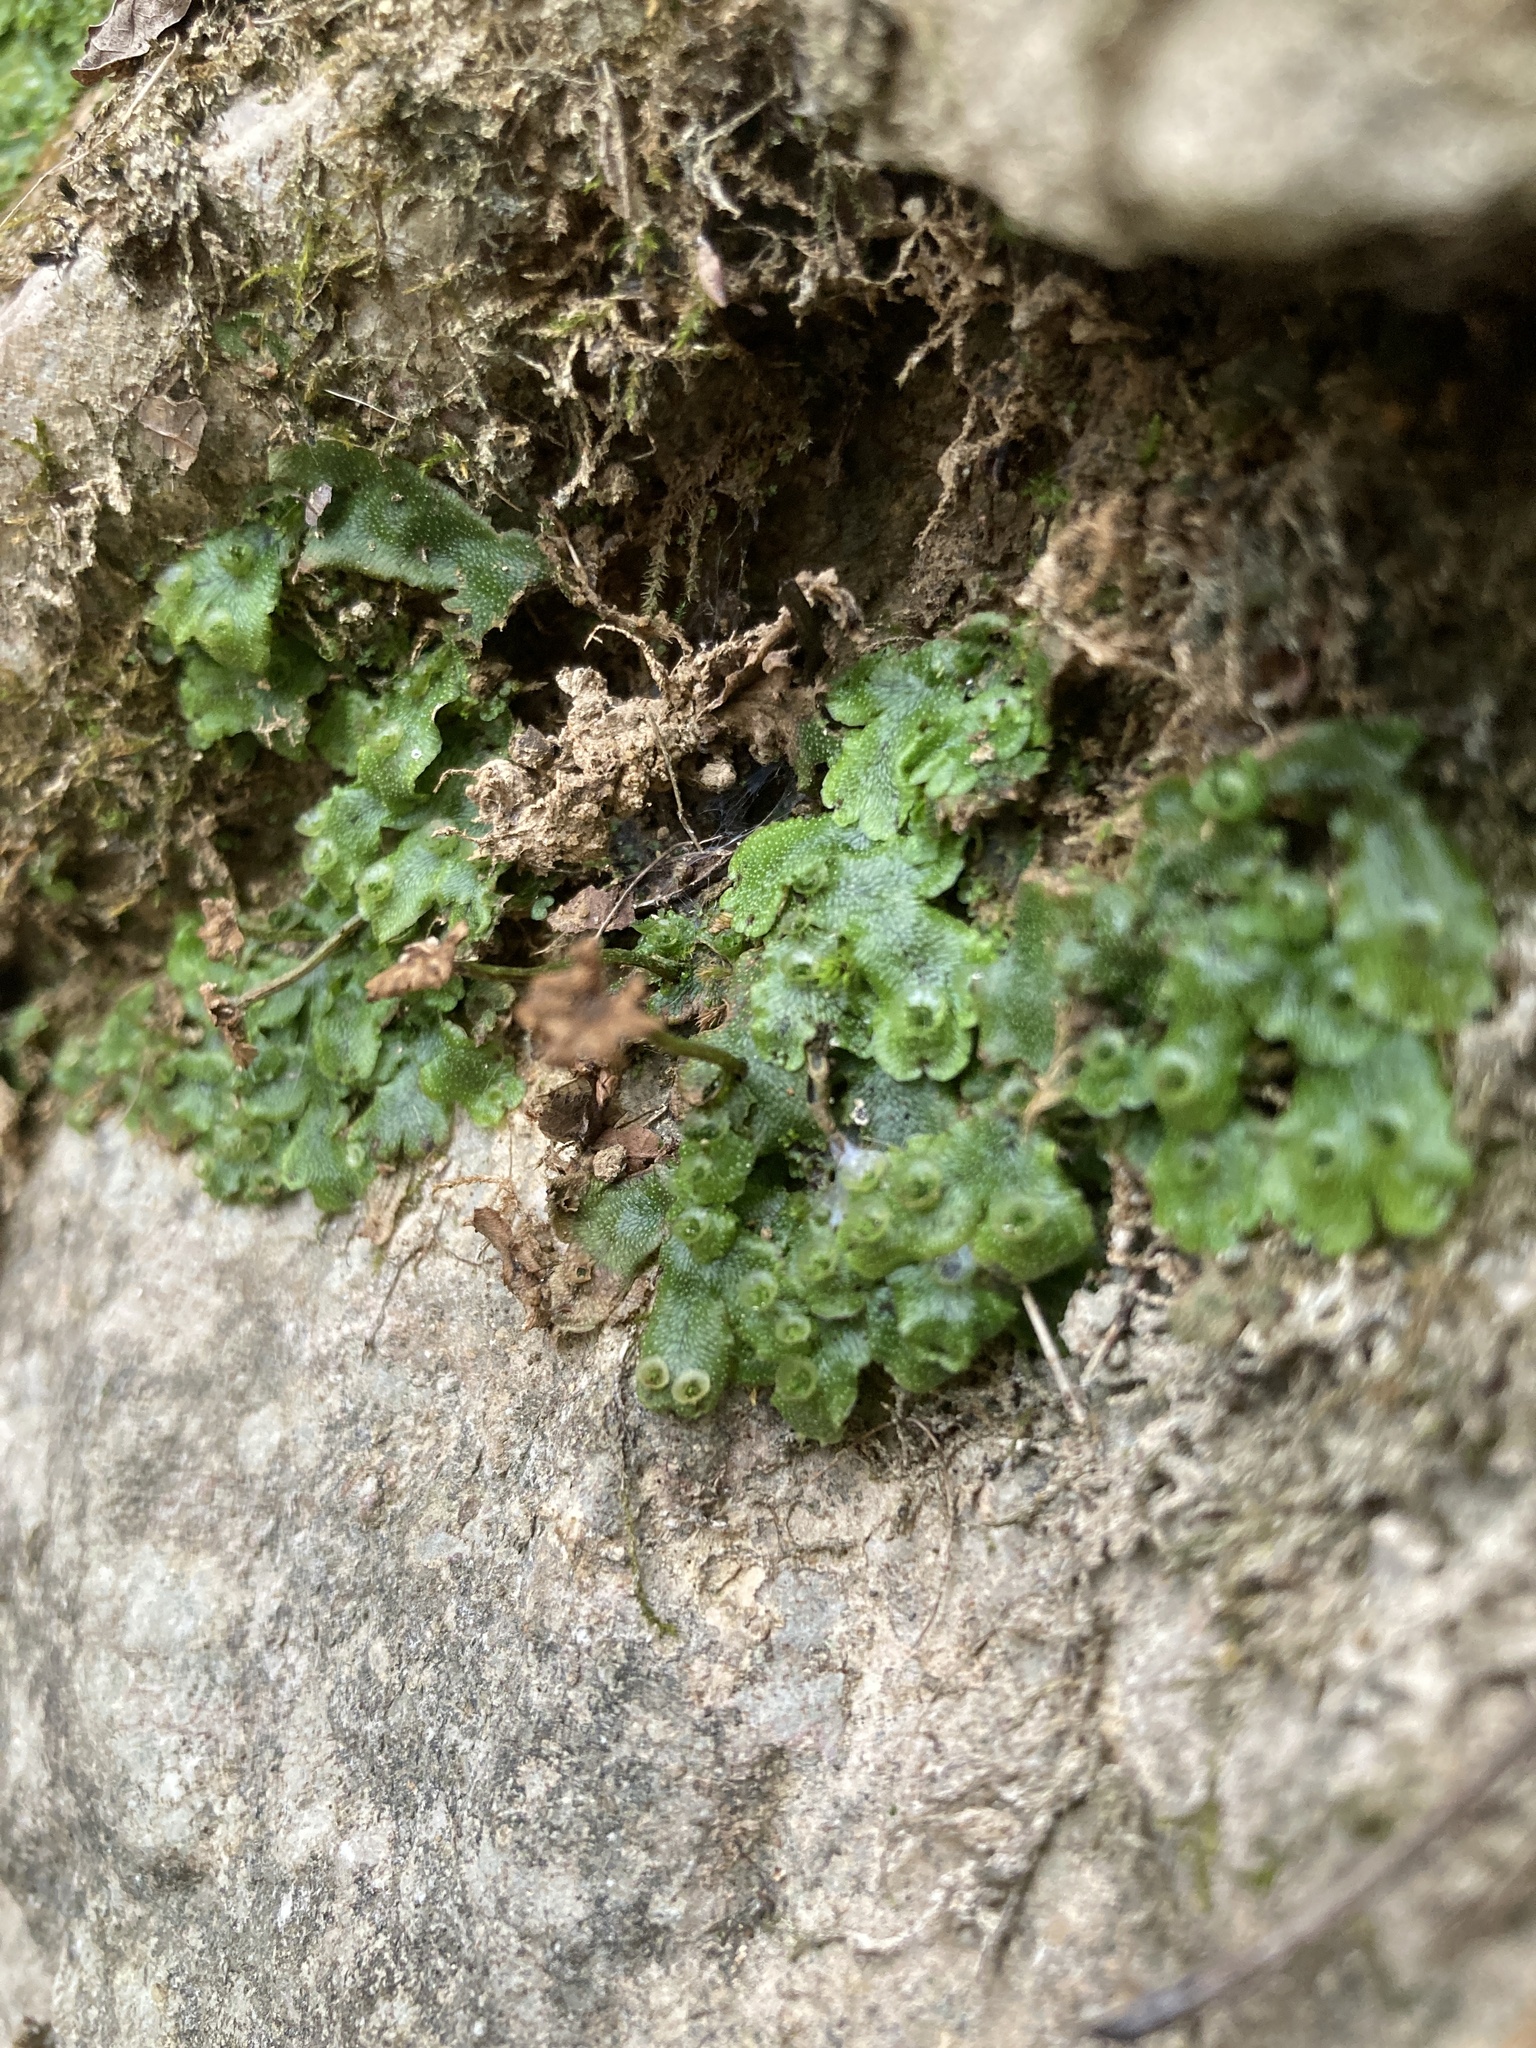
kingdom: Plantae
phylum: Marchantiophyta
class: Marchantiopsida
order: Marchantiales
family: Marchantiaceae
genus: Marchantia
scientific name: Marchantia inflexa
